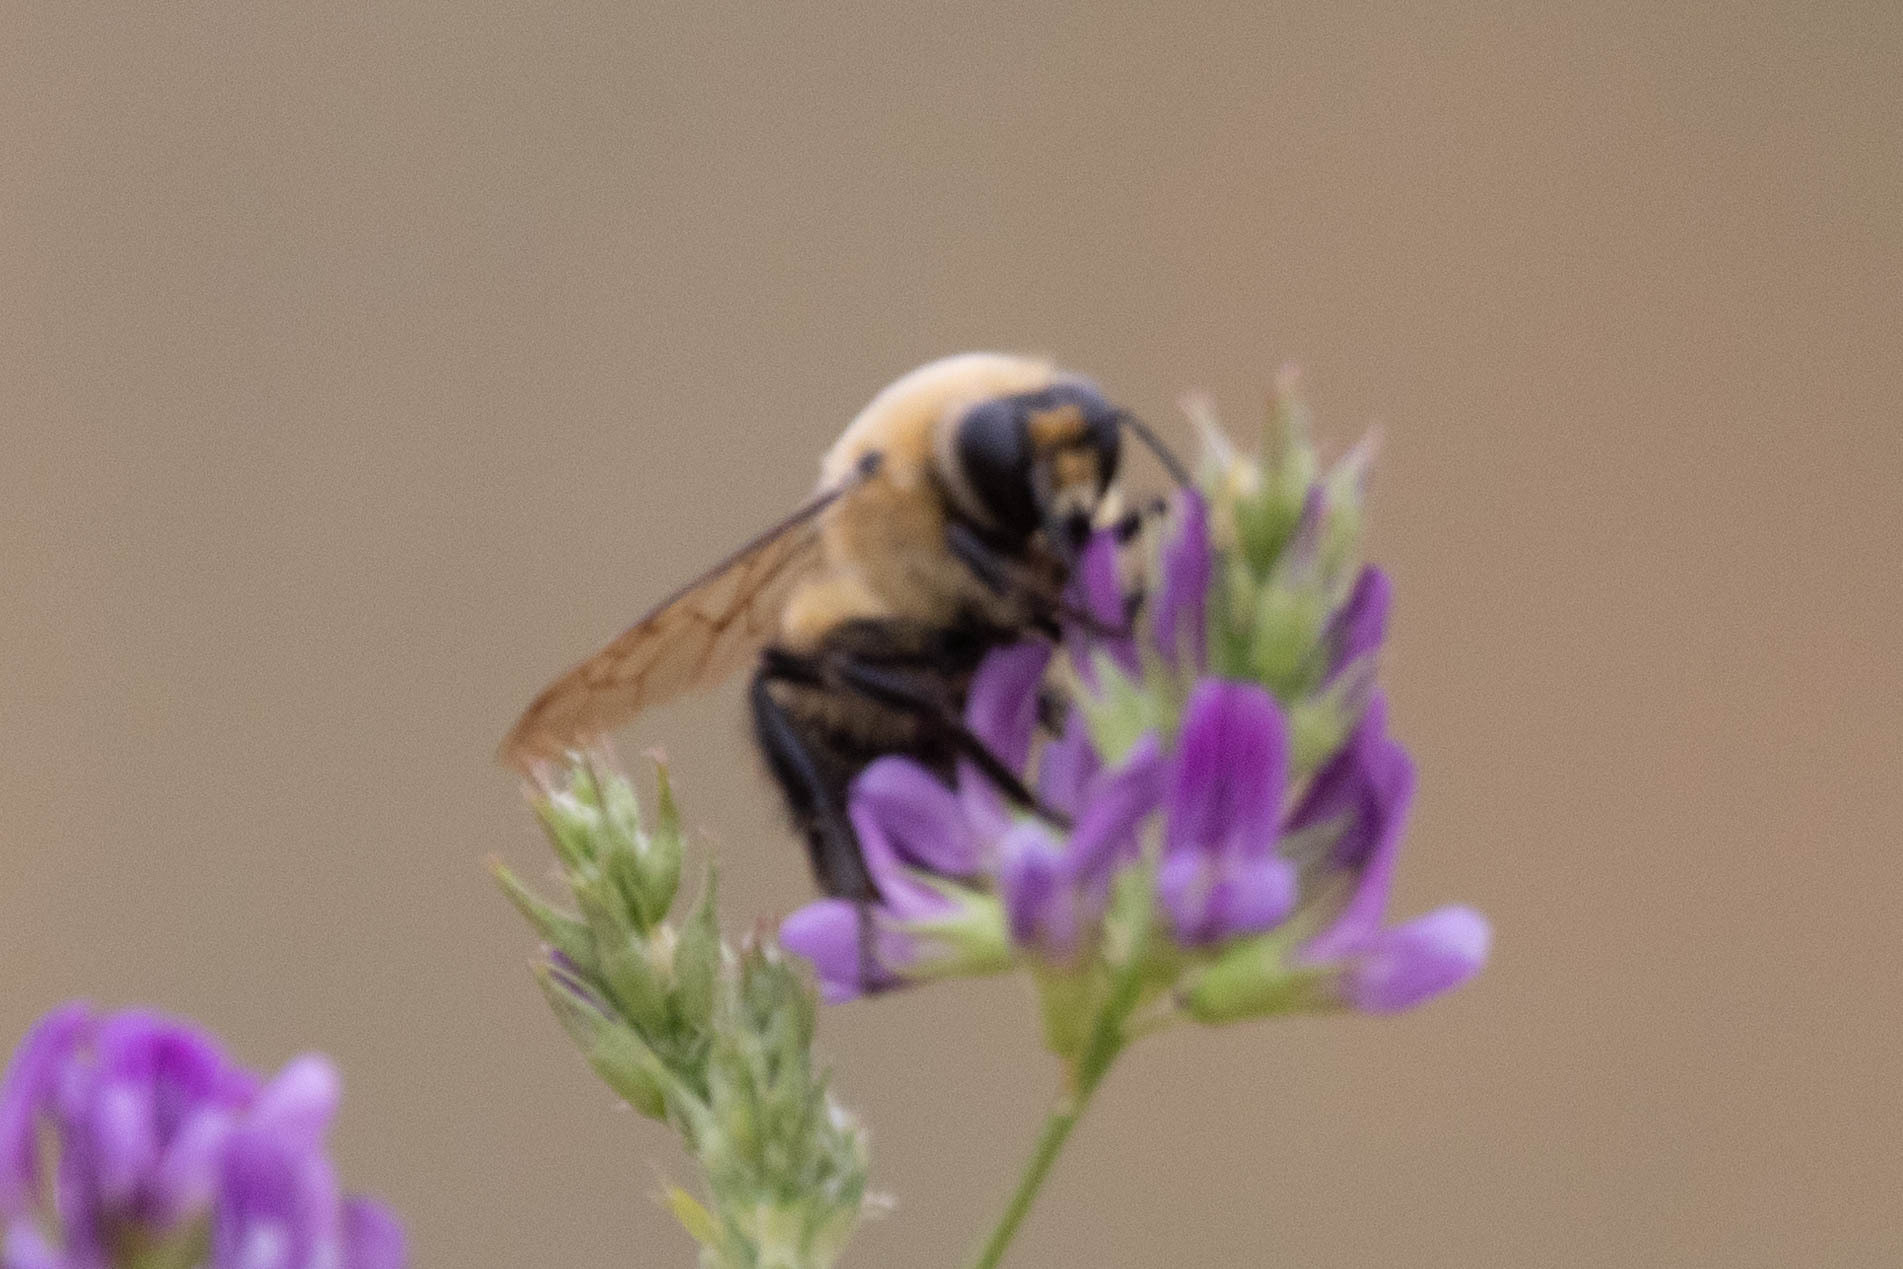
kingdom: Animalia
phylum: Arthropoda
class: Insecta
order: Hymenoptera
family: Apidae
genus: Bombus
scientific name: Bombus griseocollis
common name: Brown-belted bumble bee
